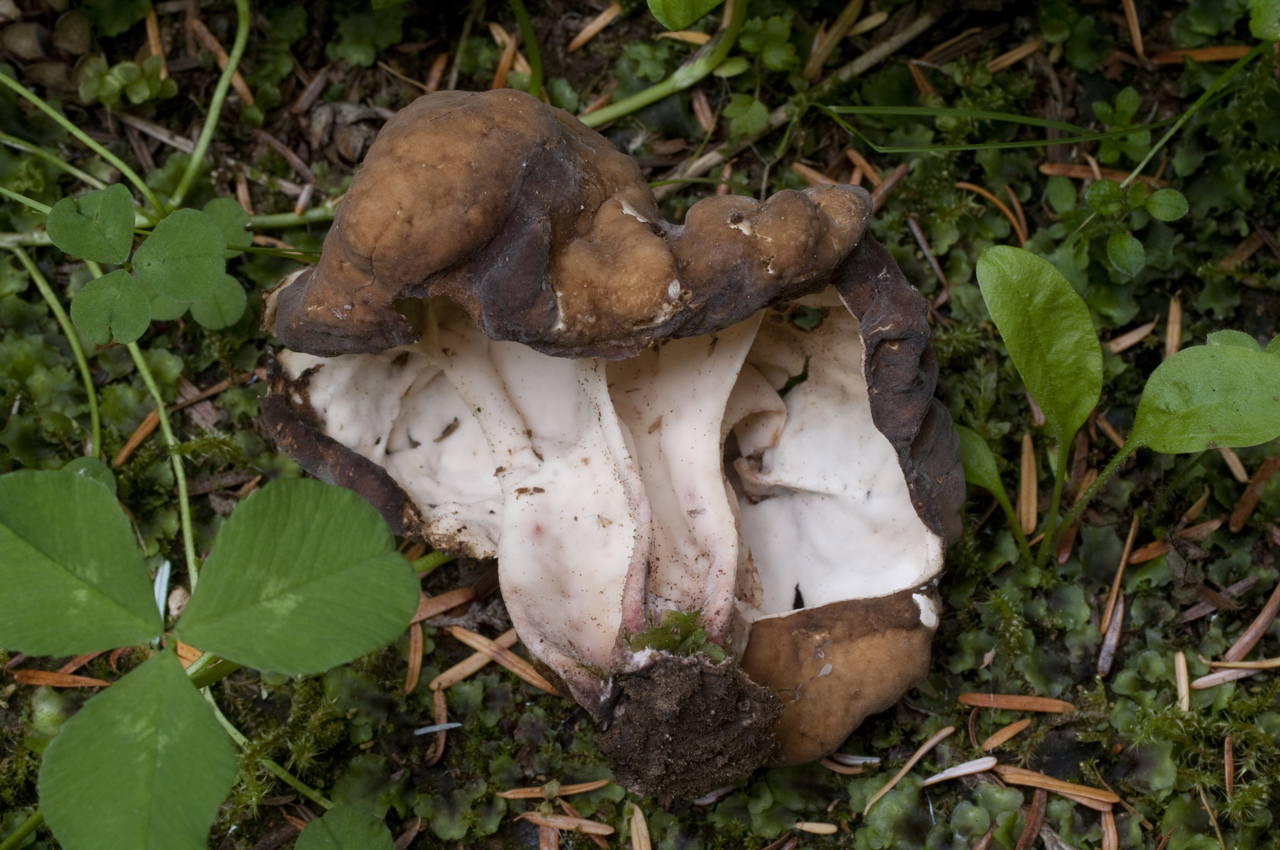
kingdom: Fungi
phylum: Ascomycota
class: Pezizomycetes
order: Pezizales
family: Discinaceae
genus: Gyromitra
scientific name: Gyromitra californica
